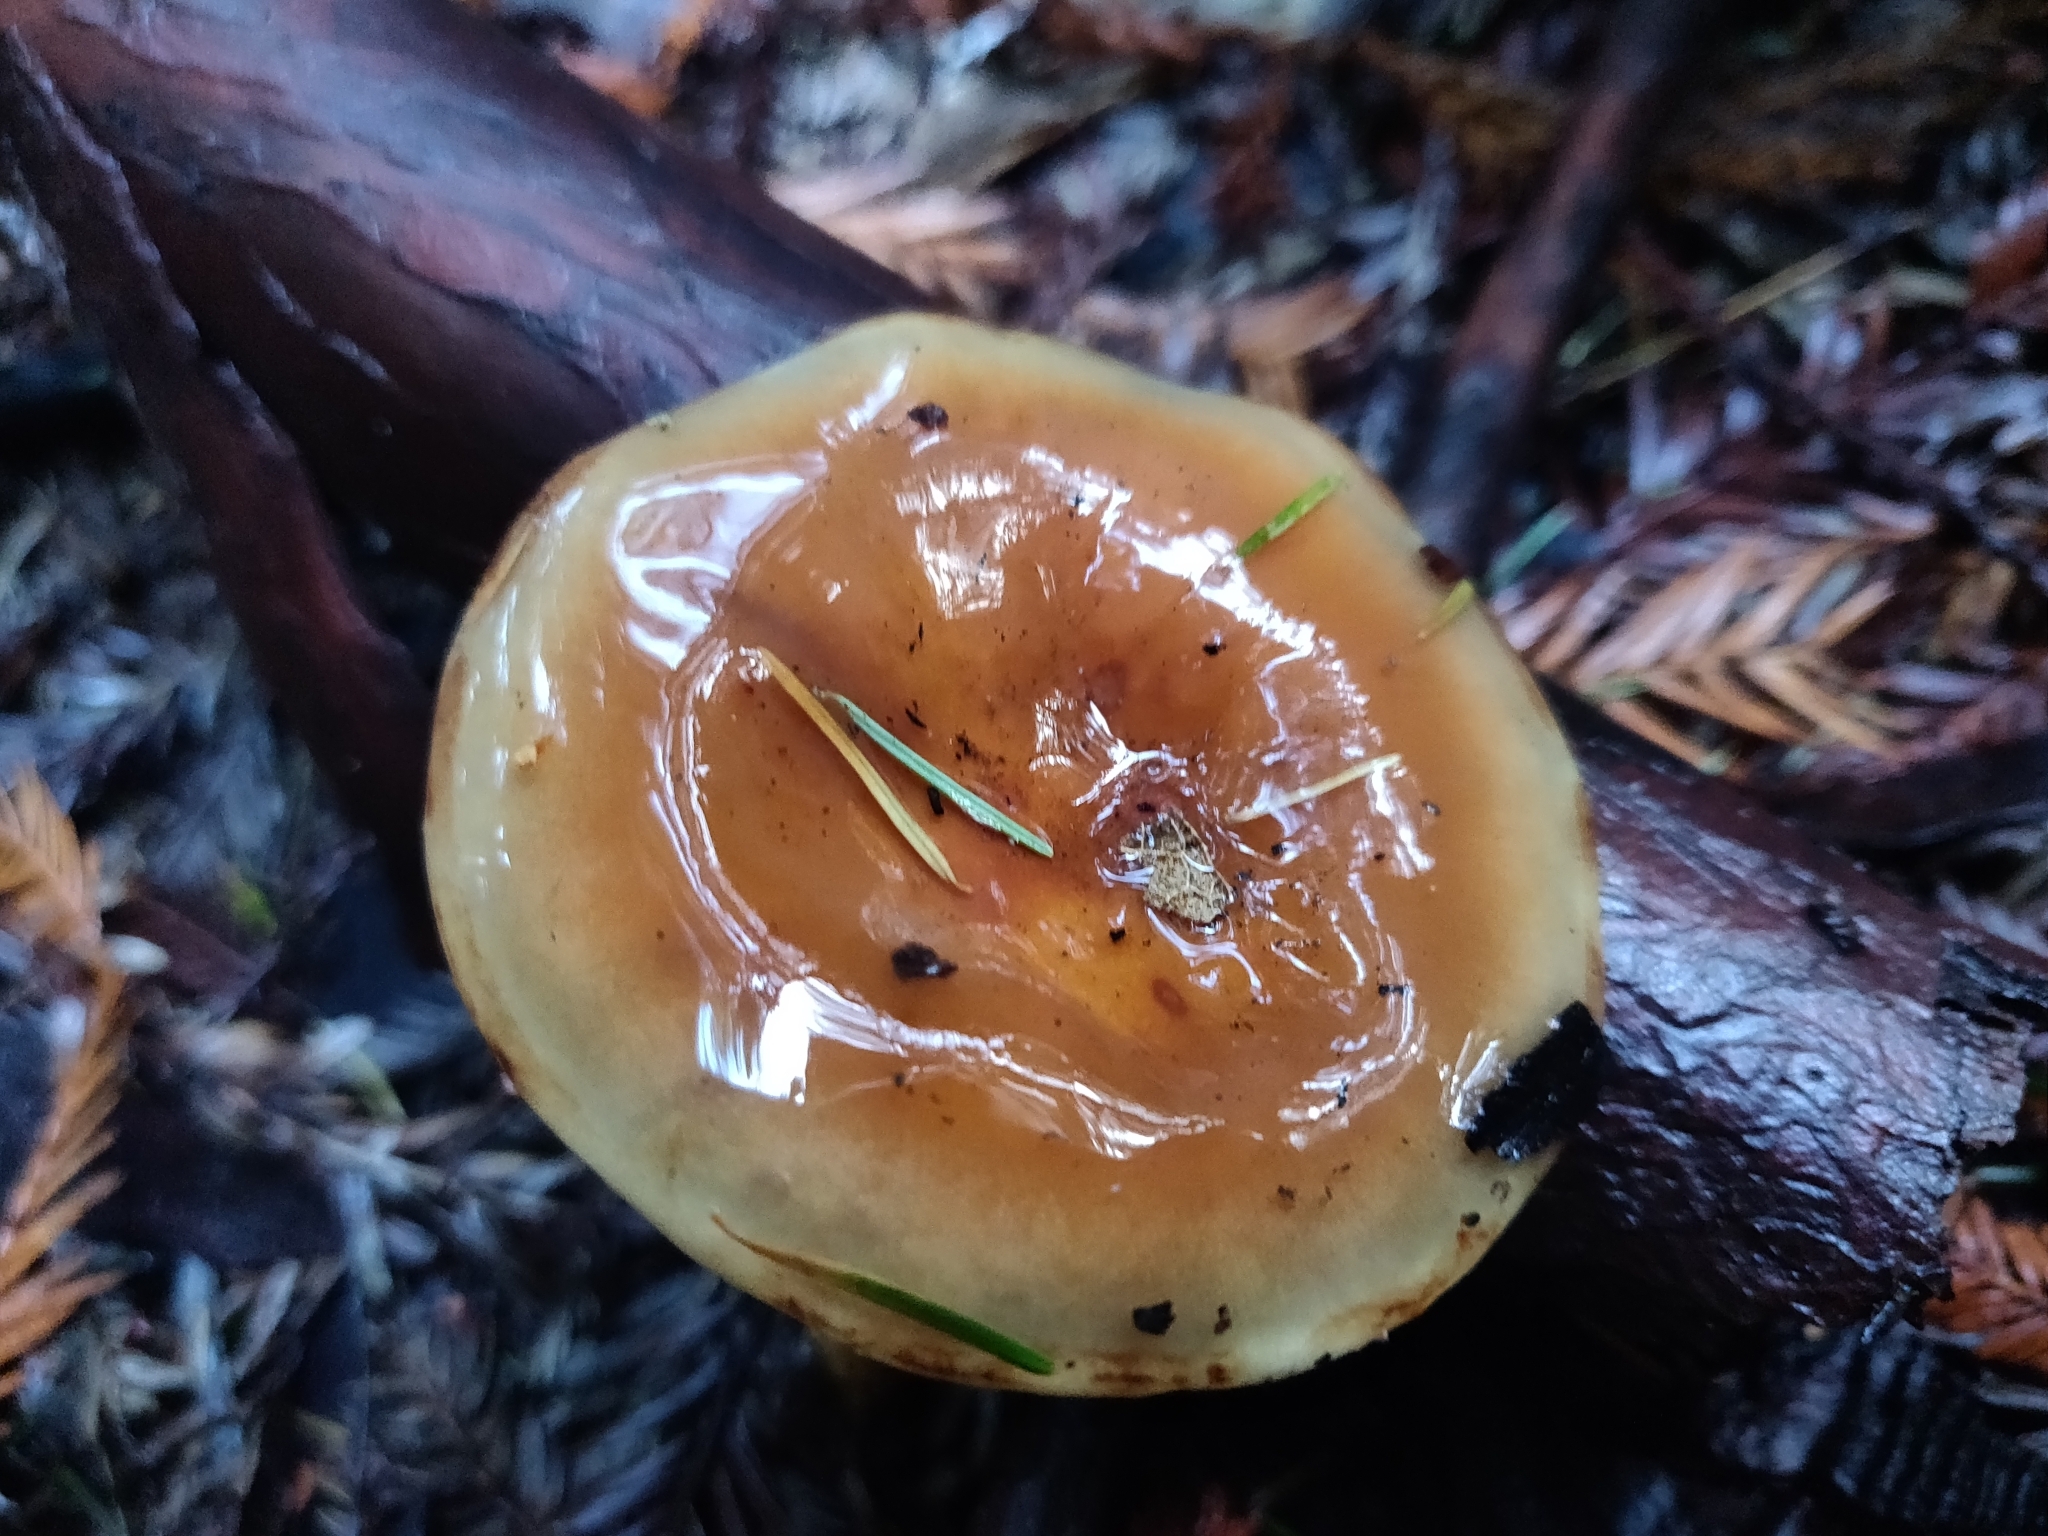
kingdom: Fungi
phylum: Basidiomycota
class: Agaricomycetes
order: Agaricales
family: Strophariaceae
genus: Pholiota
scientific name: Pholiota velaglutinosa
